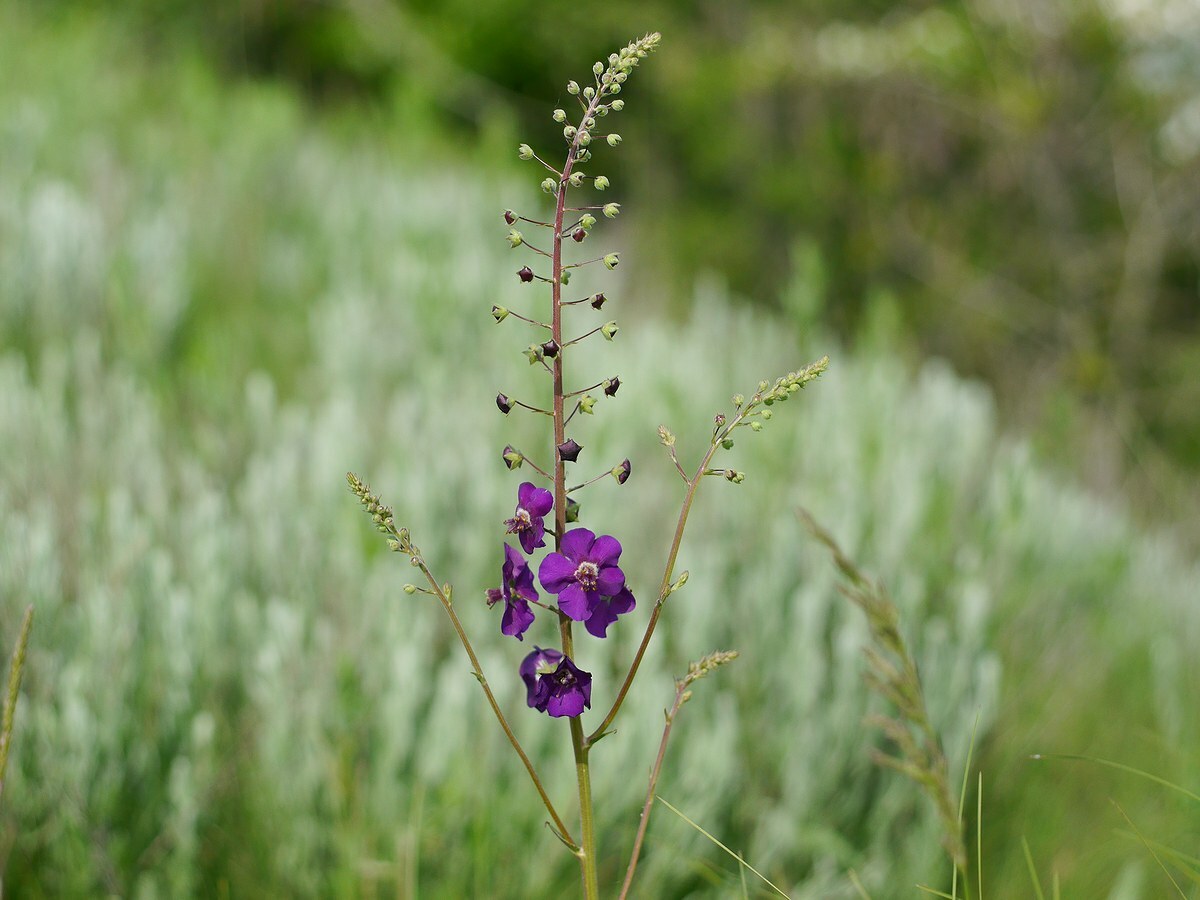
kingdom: Plantae
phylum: Tracheophyta
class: Magnoliopsida
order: Lamiales
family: Scrophulariaceae
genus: Verbascum
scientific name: Verbascum phoeniceum
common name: Purple mullein
